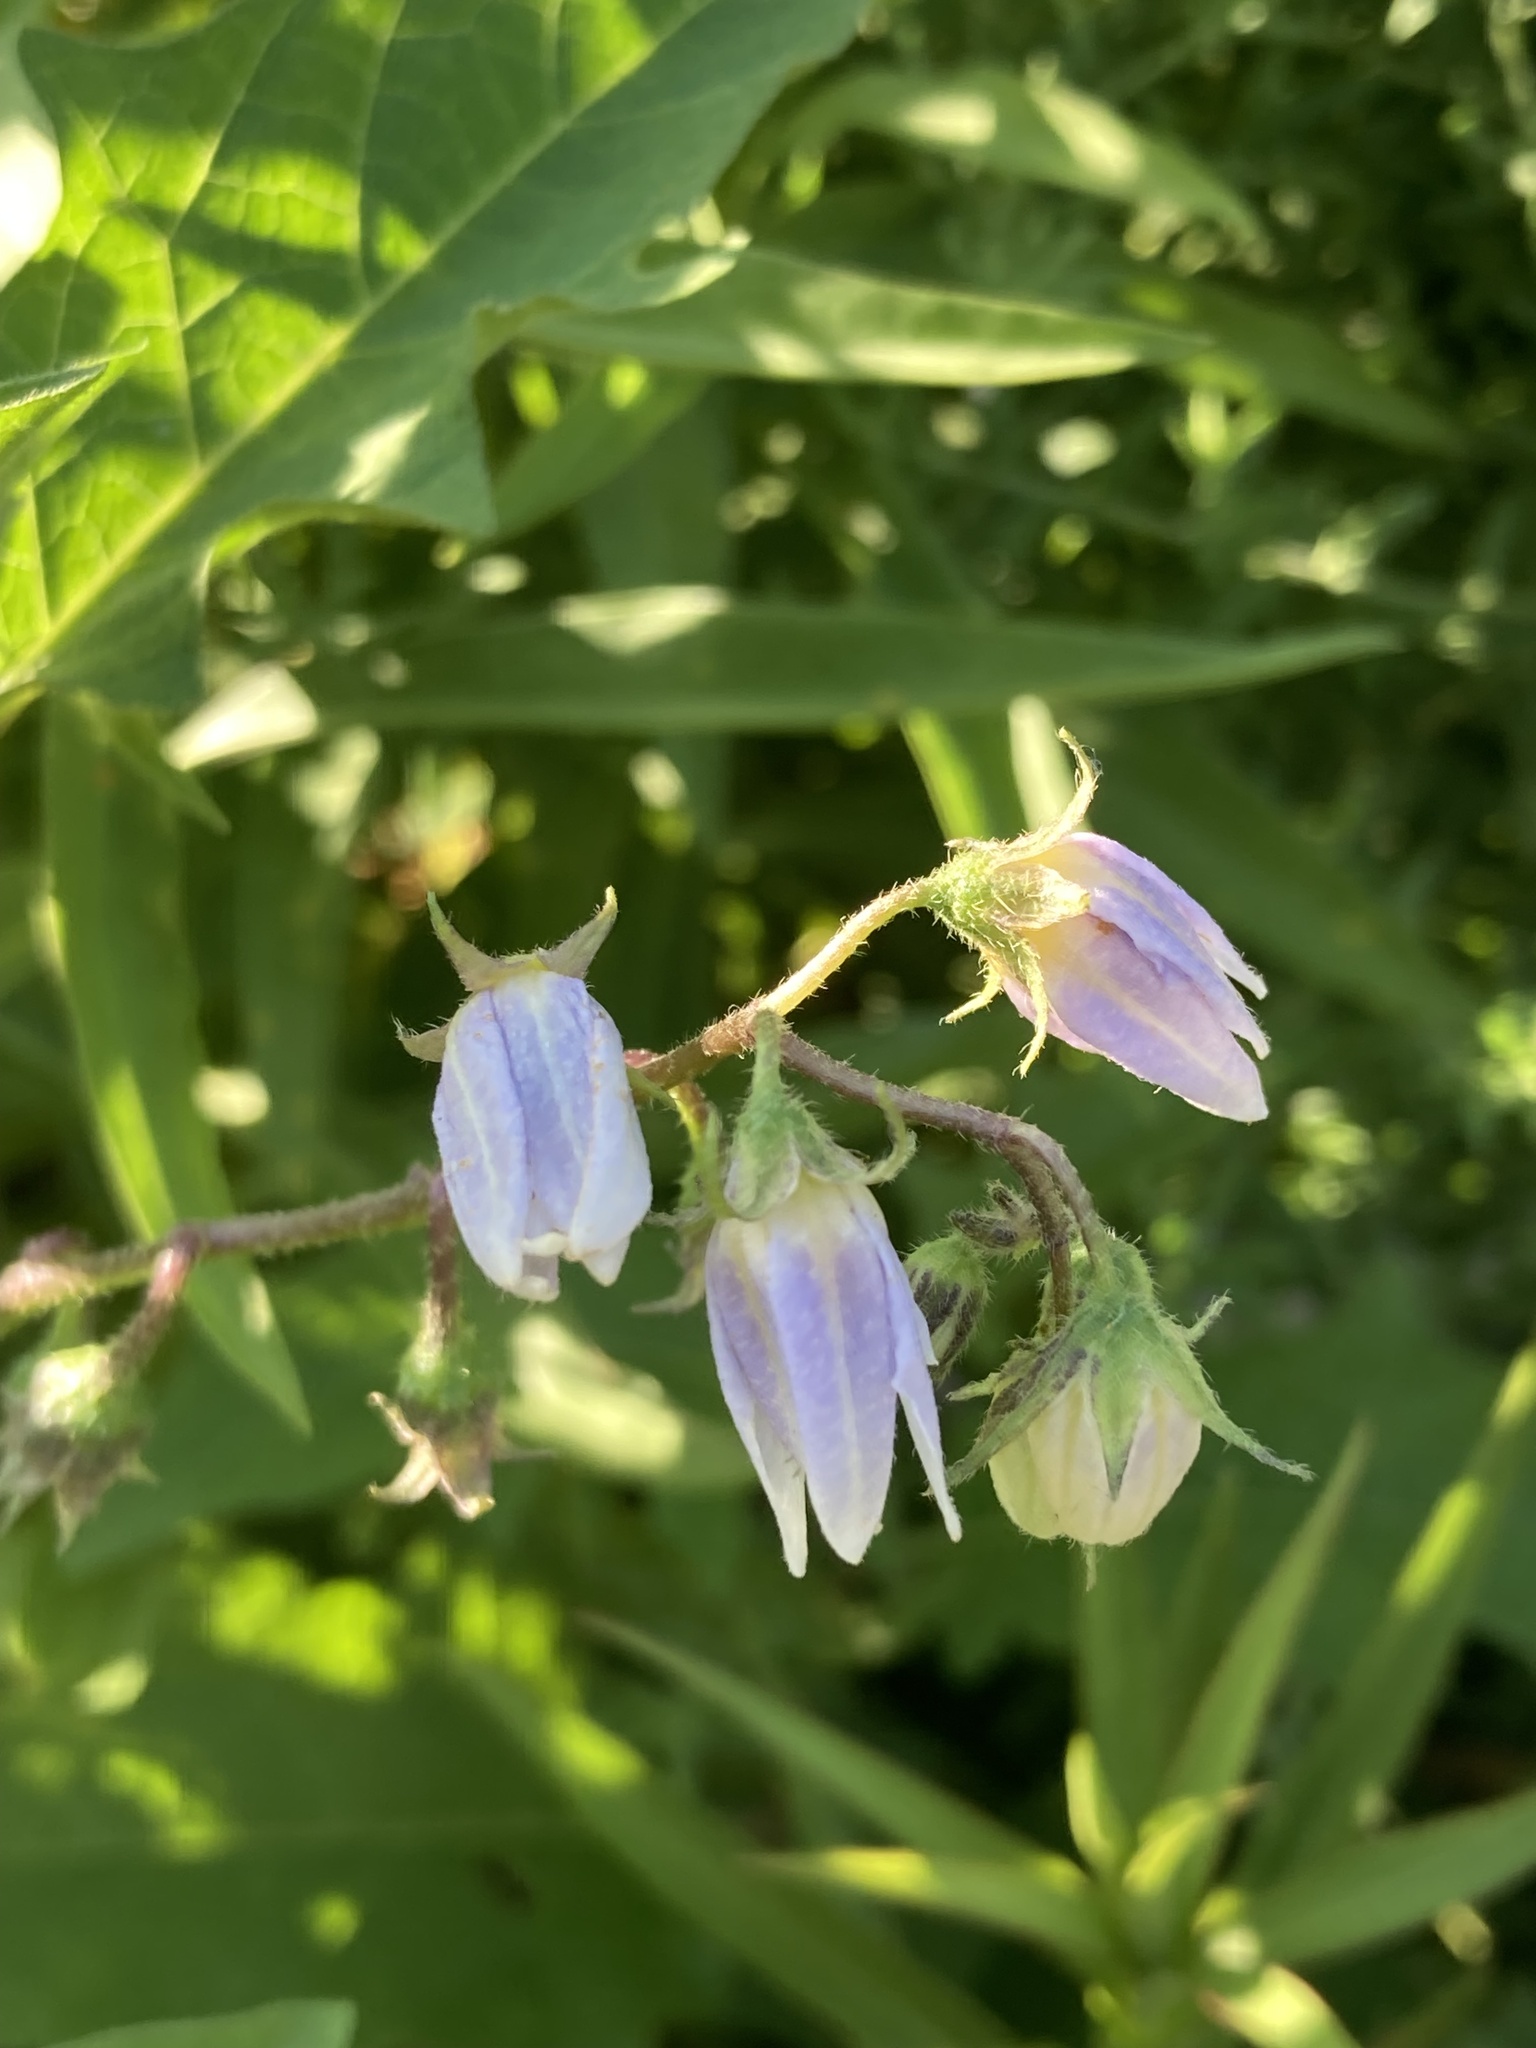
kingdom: Plantae
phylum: Tracheophyta
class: Magnoliopsida
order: Solanales
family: Solanaceae
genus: Solanum
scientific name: Solanum carolinense
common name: Horse-nettle
